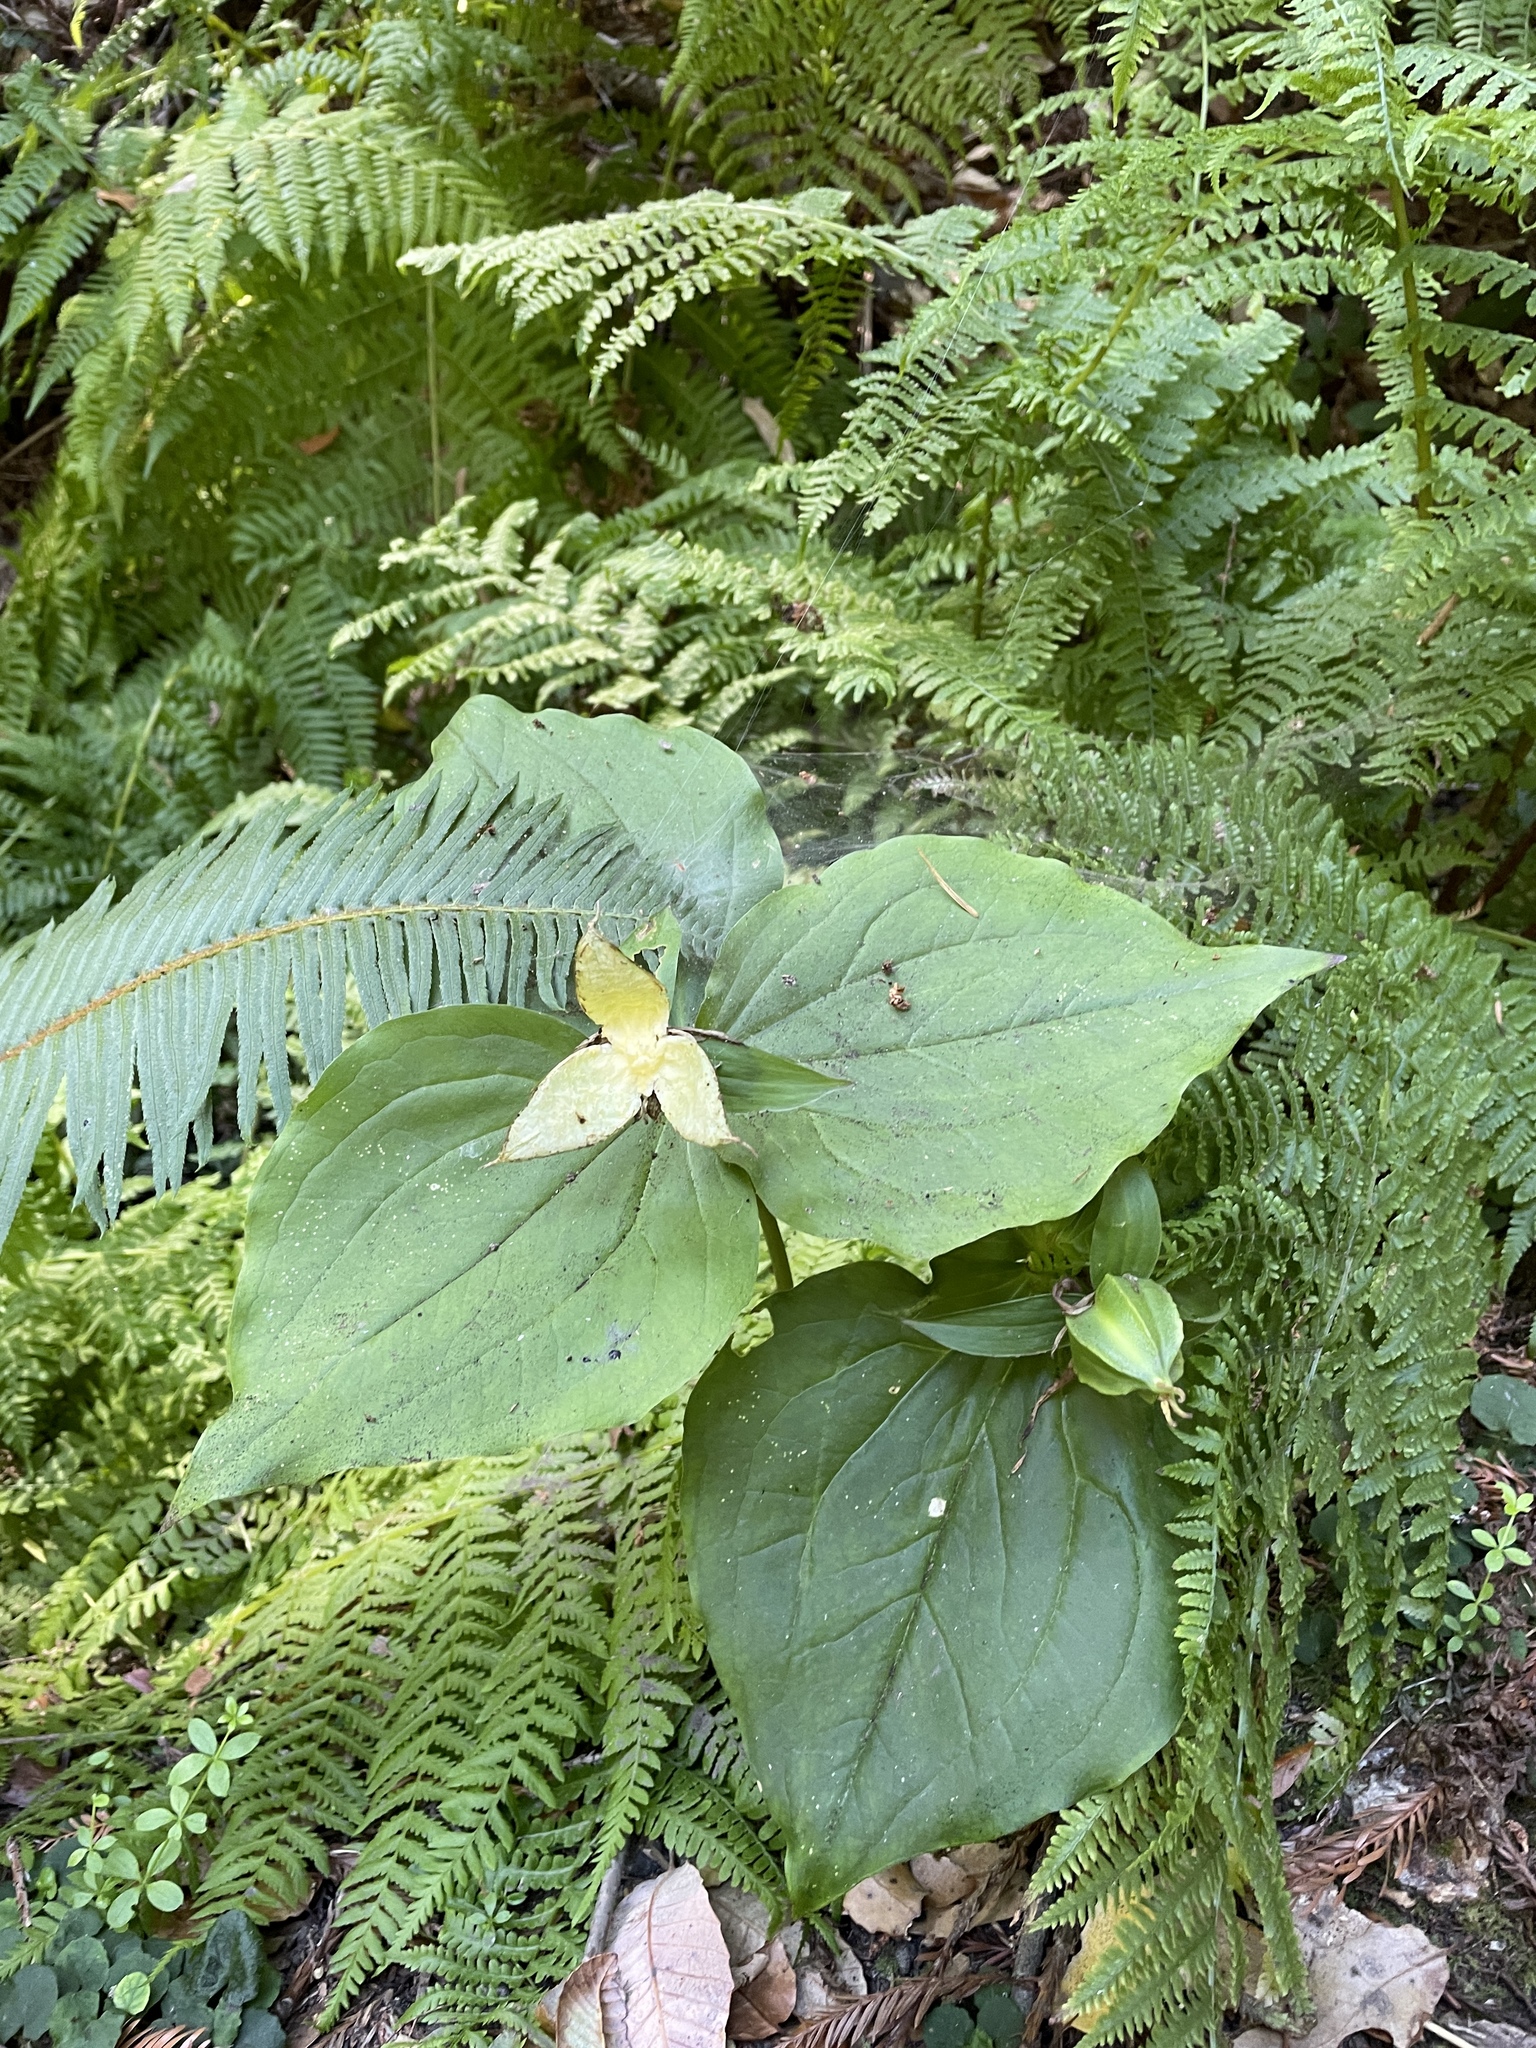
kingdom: Plantae
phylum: Tracheophyta
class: Liliopsida
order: Liliales
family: Melanthiaceae
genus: Trillium
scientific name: Trillium ovatum
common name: Pacific trillium
